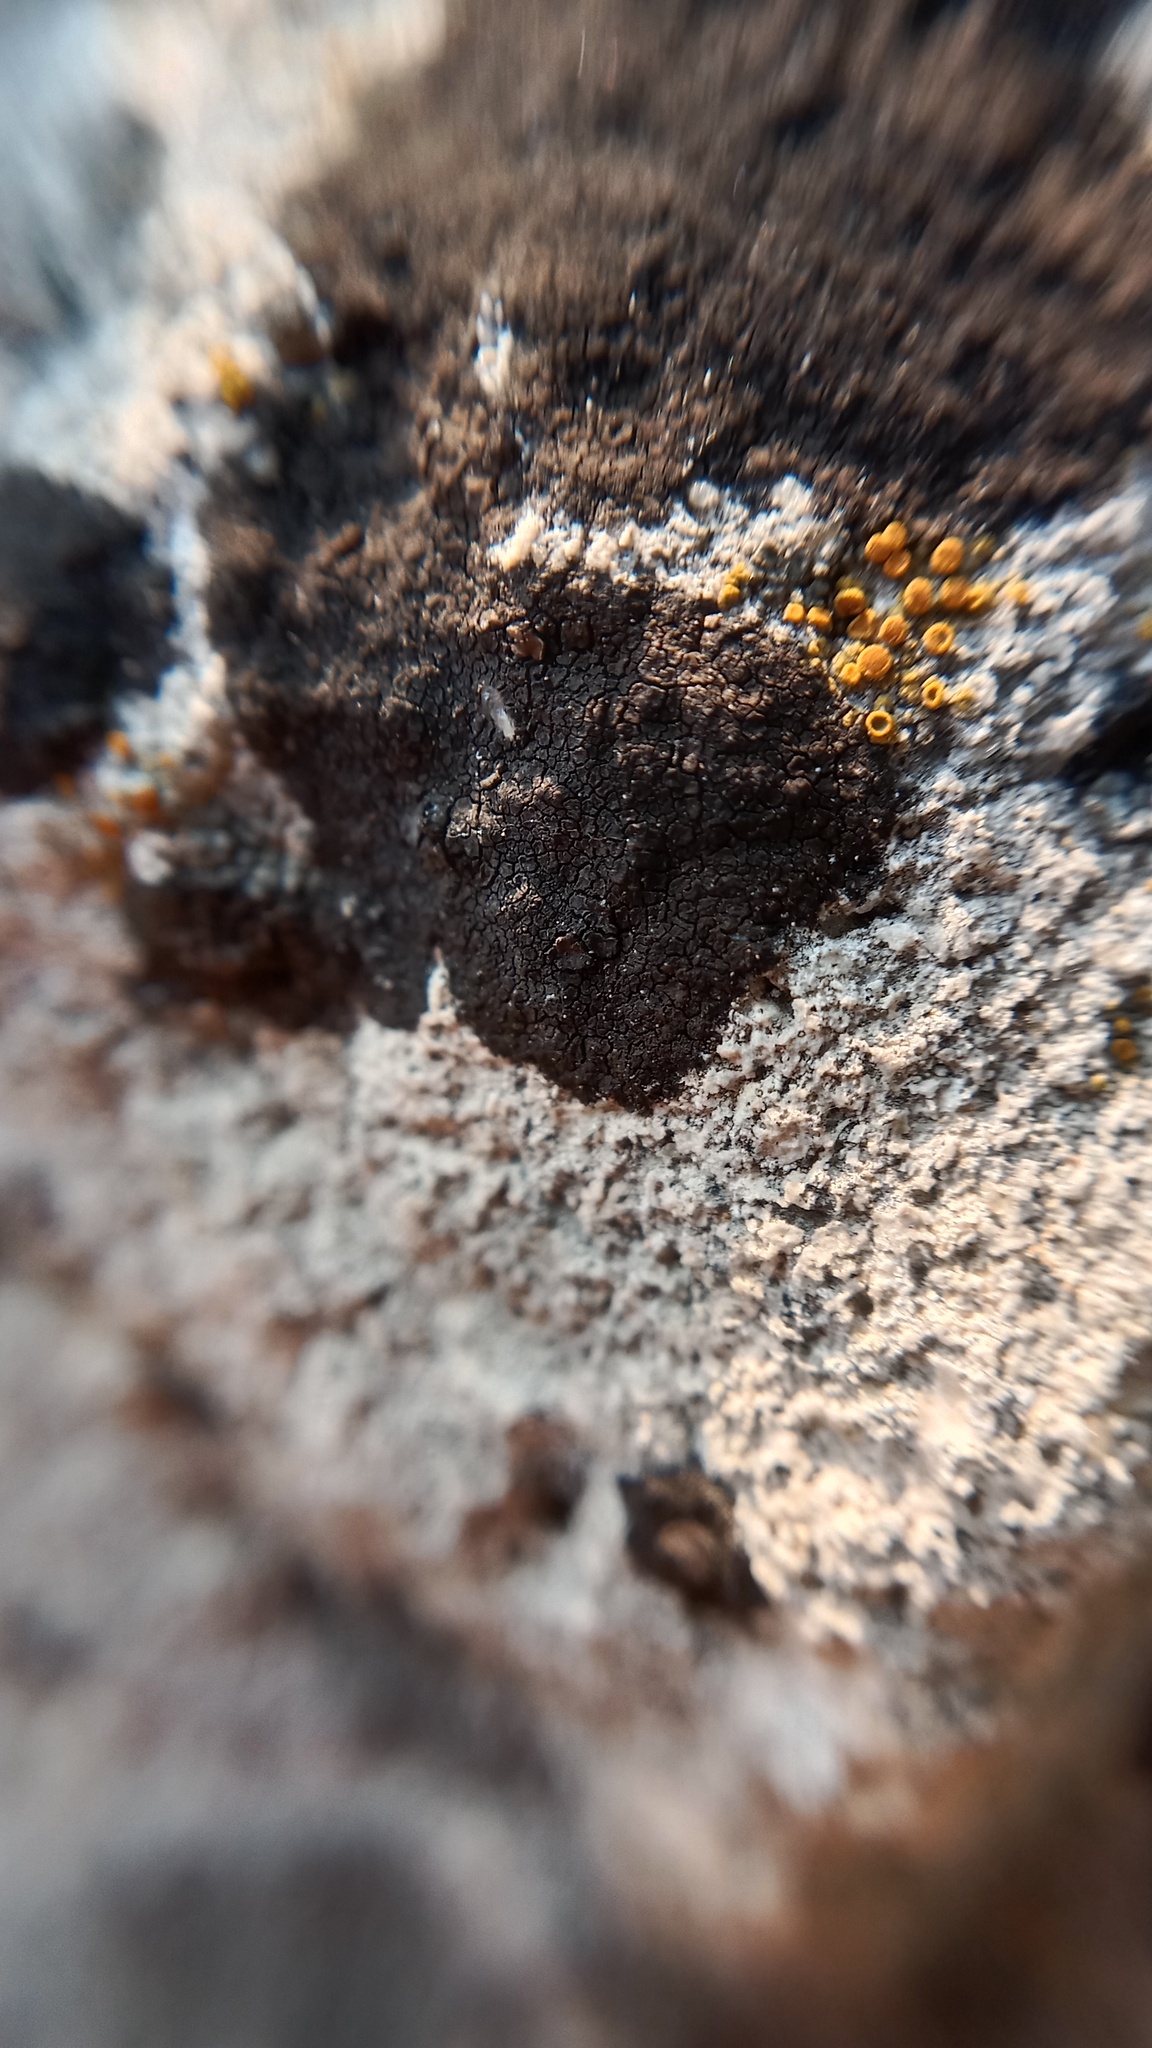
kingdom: Fungi
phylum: Ascomycota
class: Eurotiomycetes
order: Verrucariales
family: Verrucariaceae
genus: Verrucaria
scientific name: Verrucaria nigrescens
